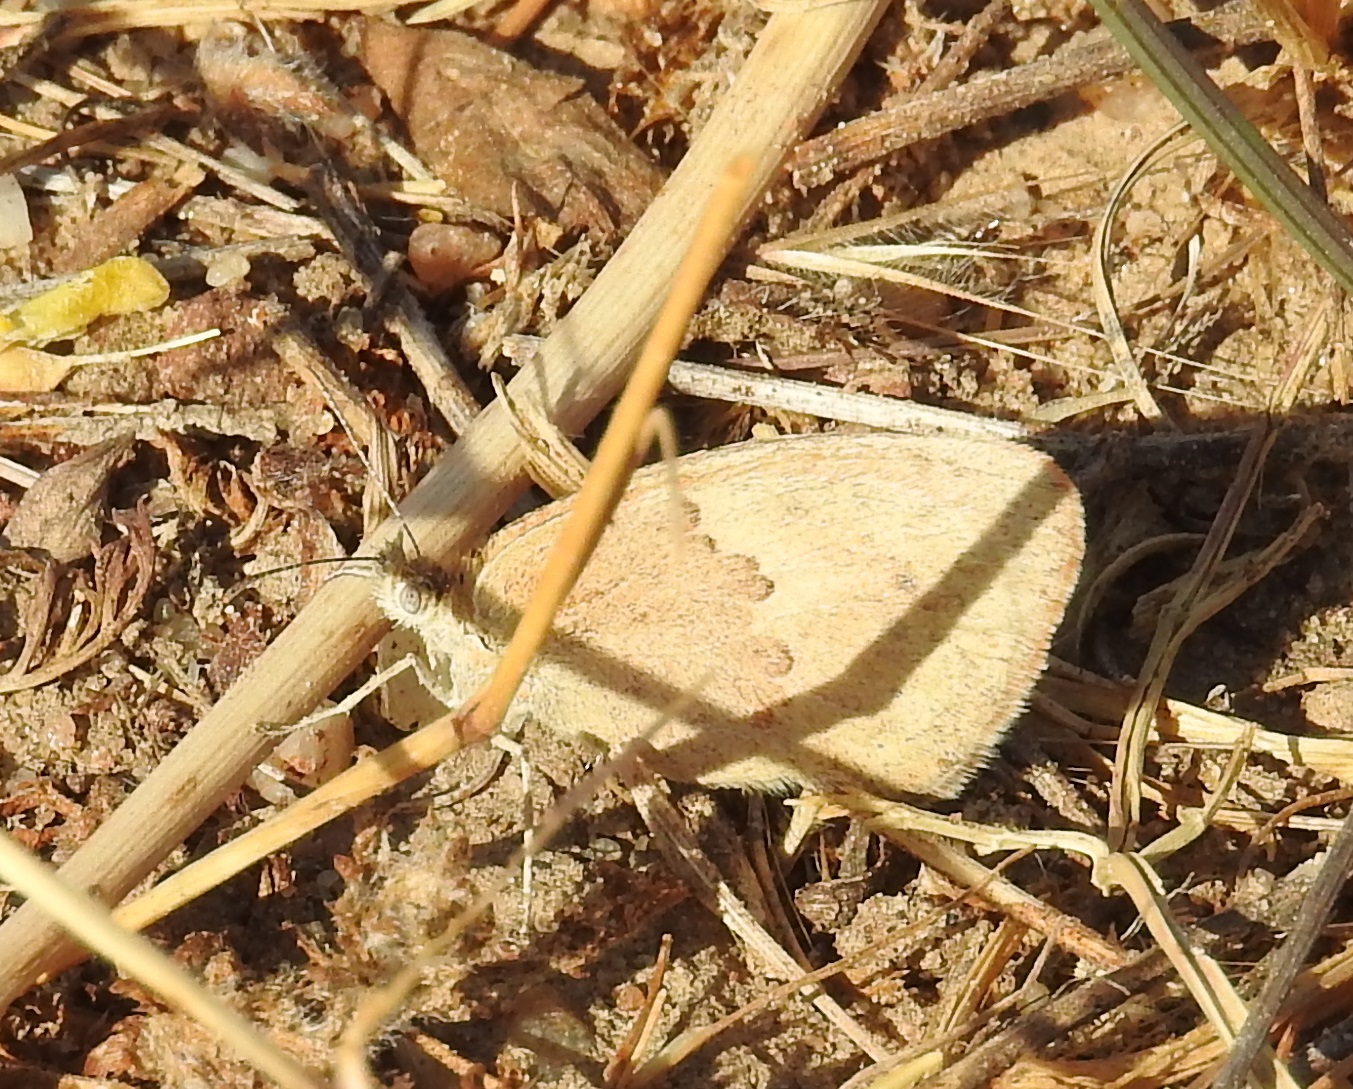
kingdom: Animalia
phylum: Arthropoda
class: Insecta
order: Lepidoptera
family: Nymphalidae
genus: Coenonympha
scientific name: Coenonympha pamphilus
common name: Small heath
